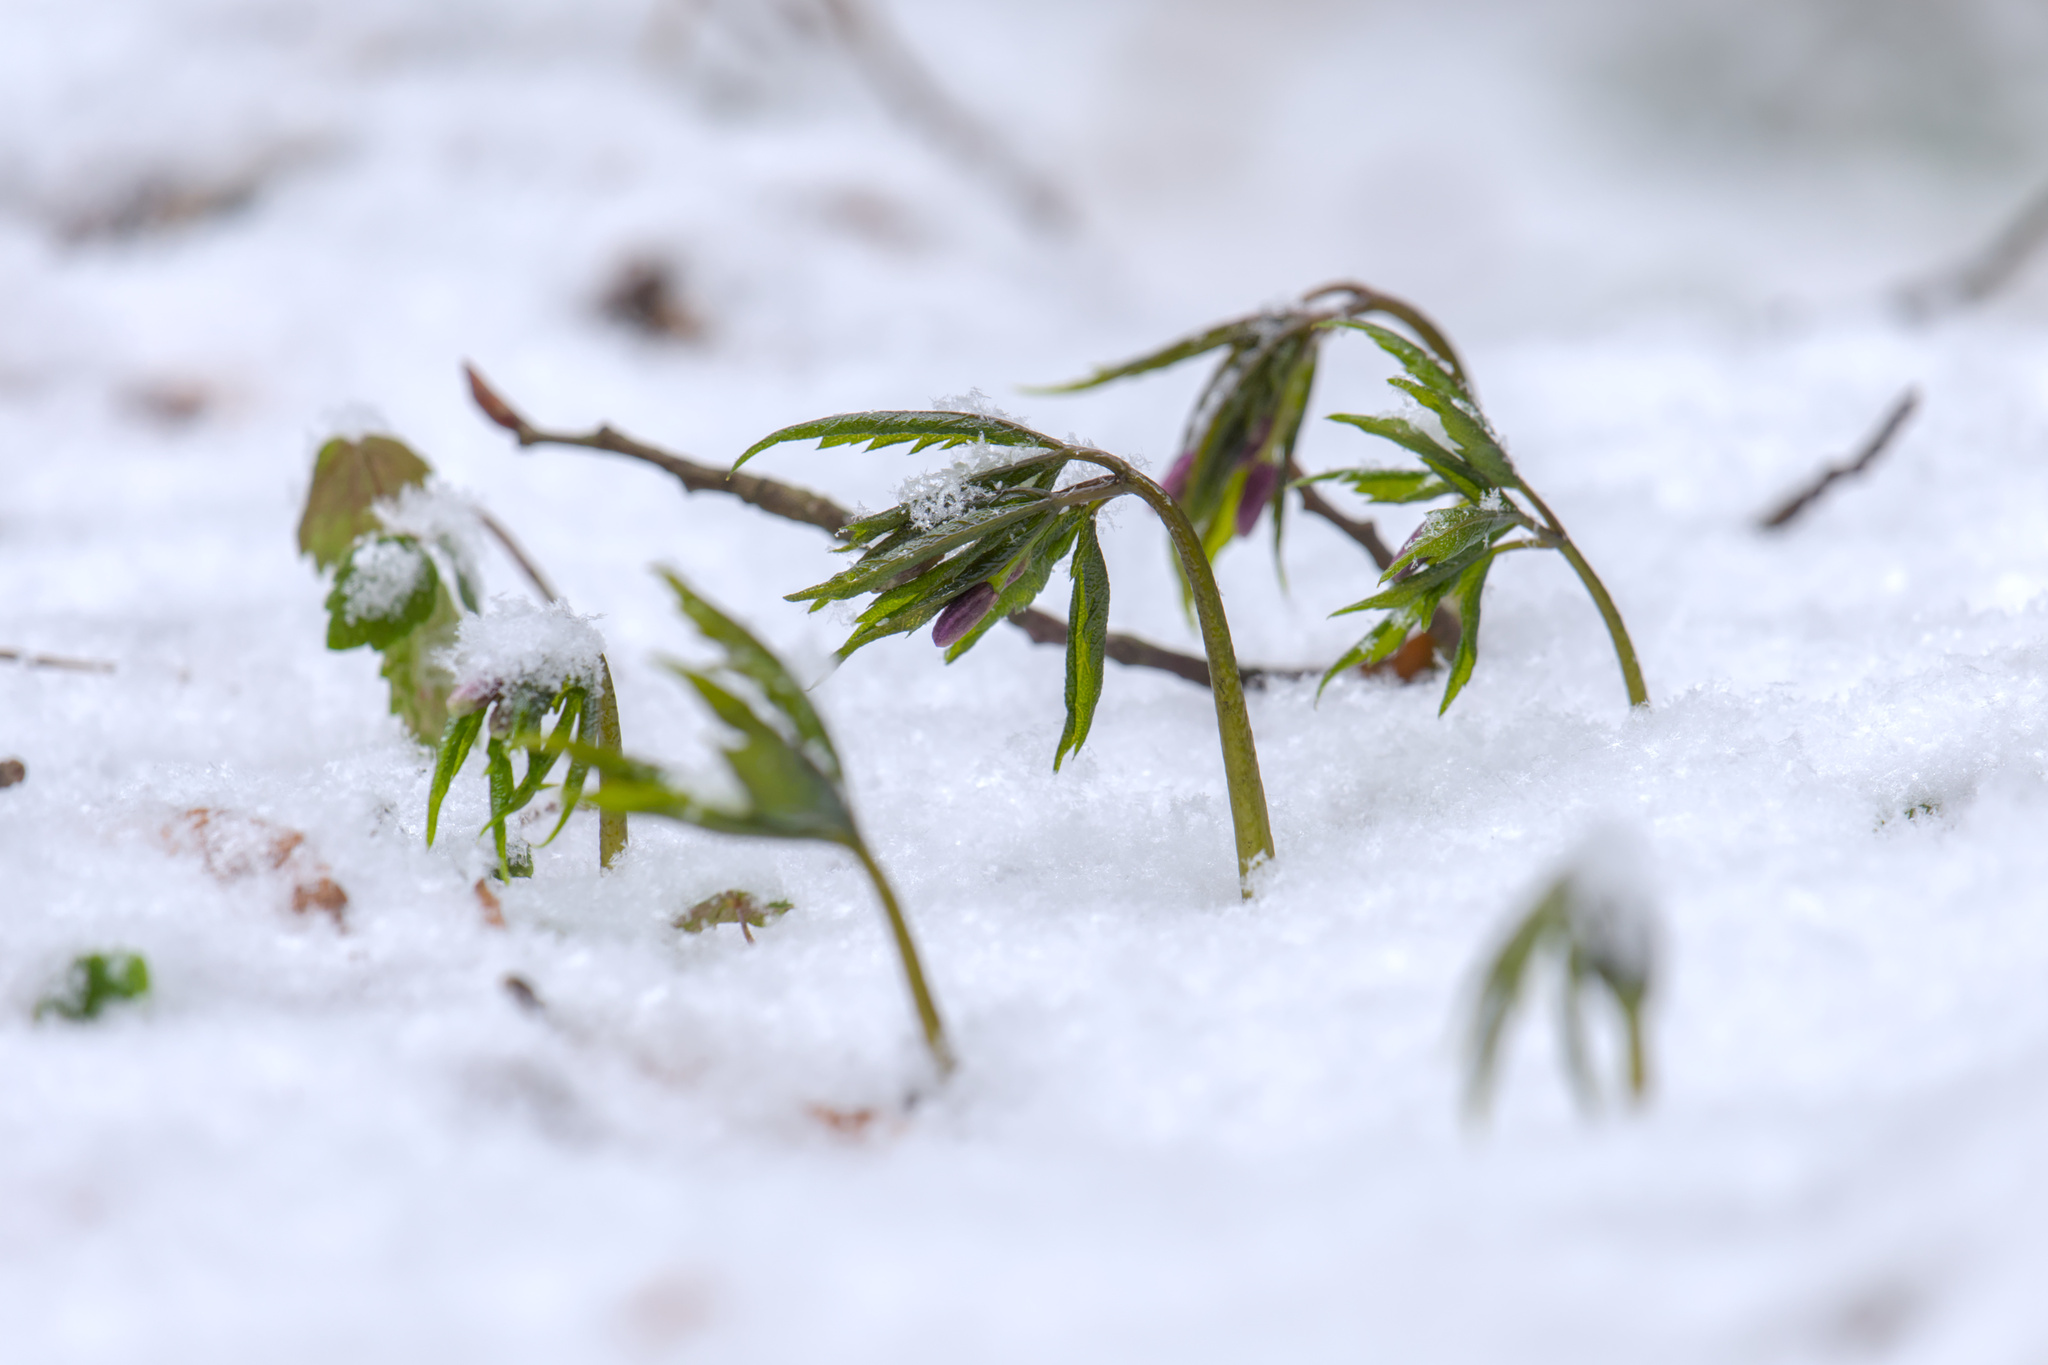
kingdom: Plantae
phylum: Tracheophyta
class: Magnoliopsida
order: Brassicales
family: Brassicaceae
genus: Cardamine
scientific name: Cardamine glanduligera
